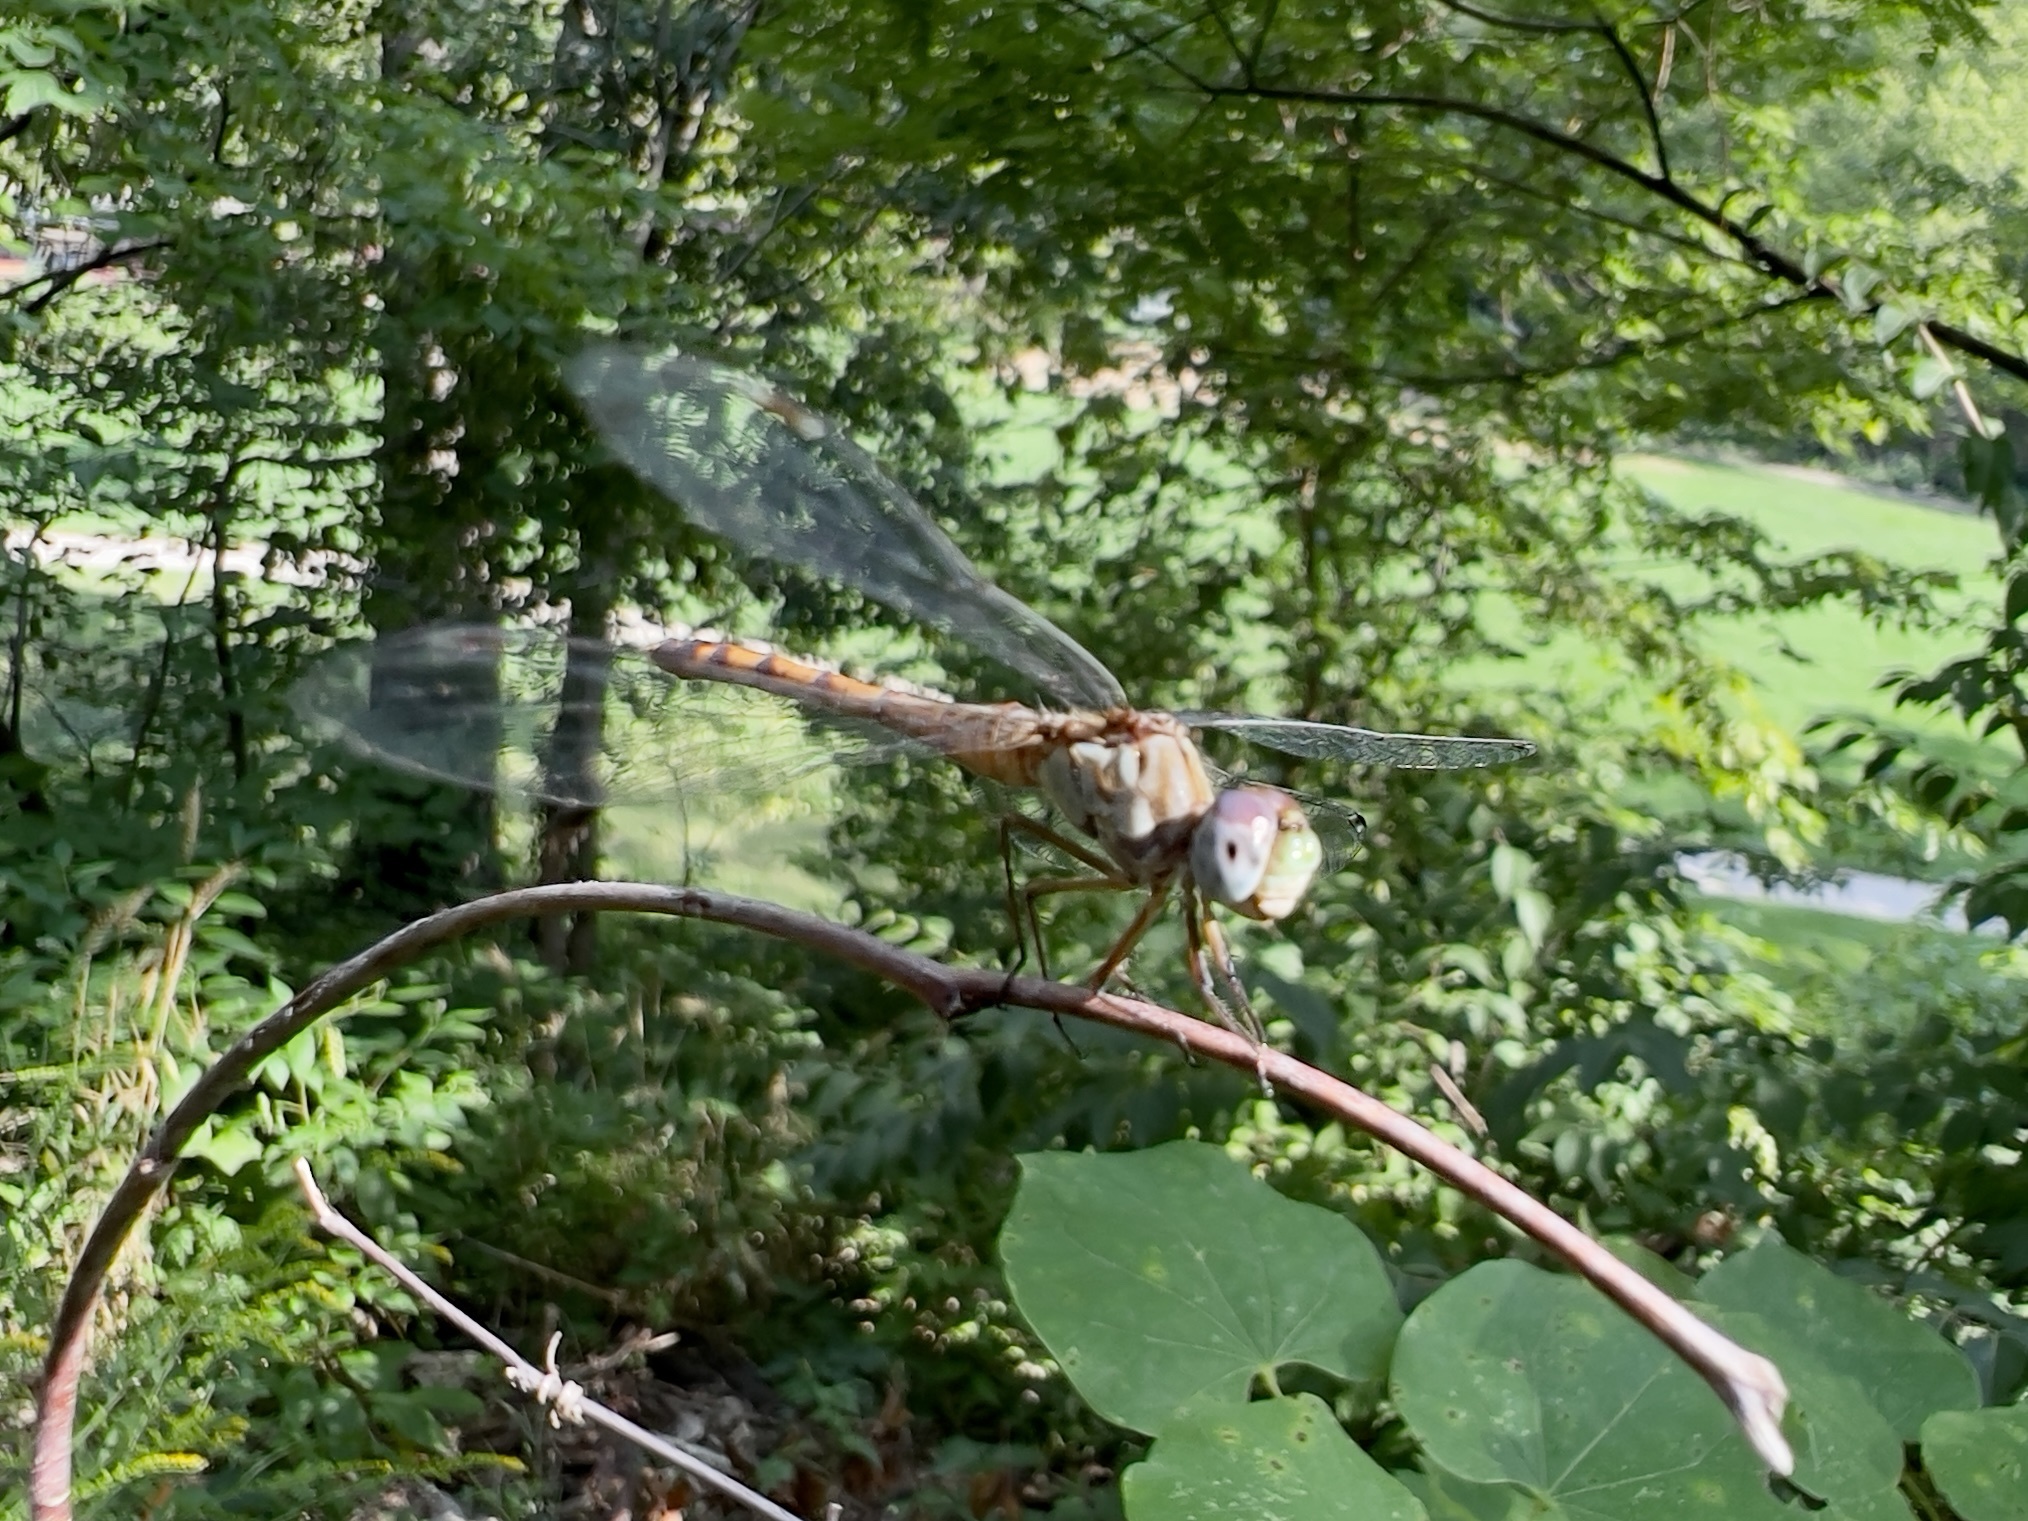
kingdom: Animalia
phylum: Arthropoda
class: Insecta
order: Odonata
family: Libellulidae
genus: Sympetrum
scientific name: Sympetrum ambiguum
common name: Blue-faced meadowhawk
